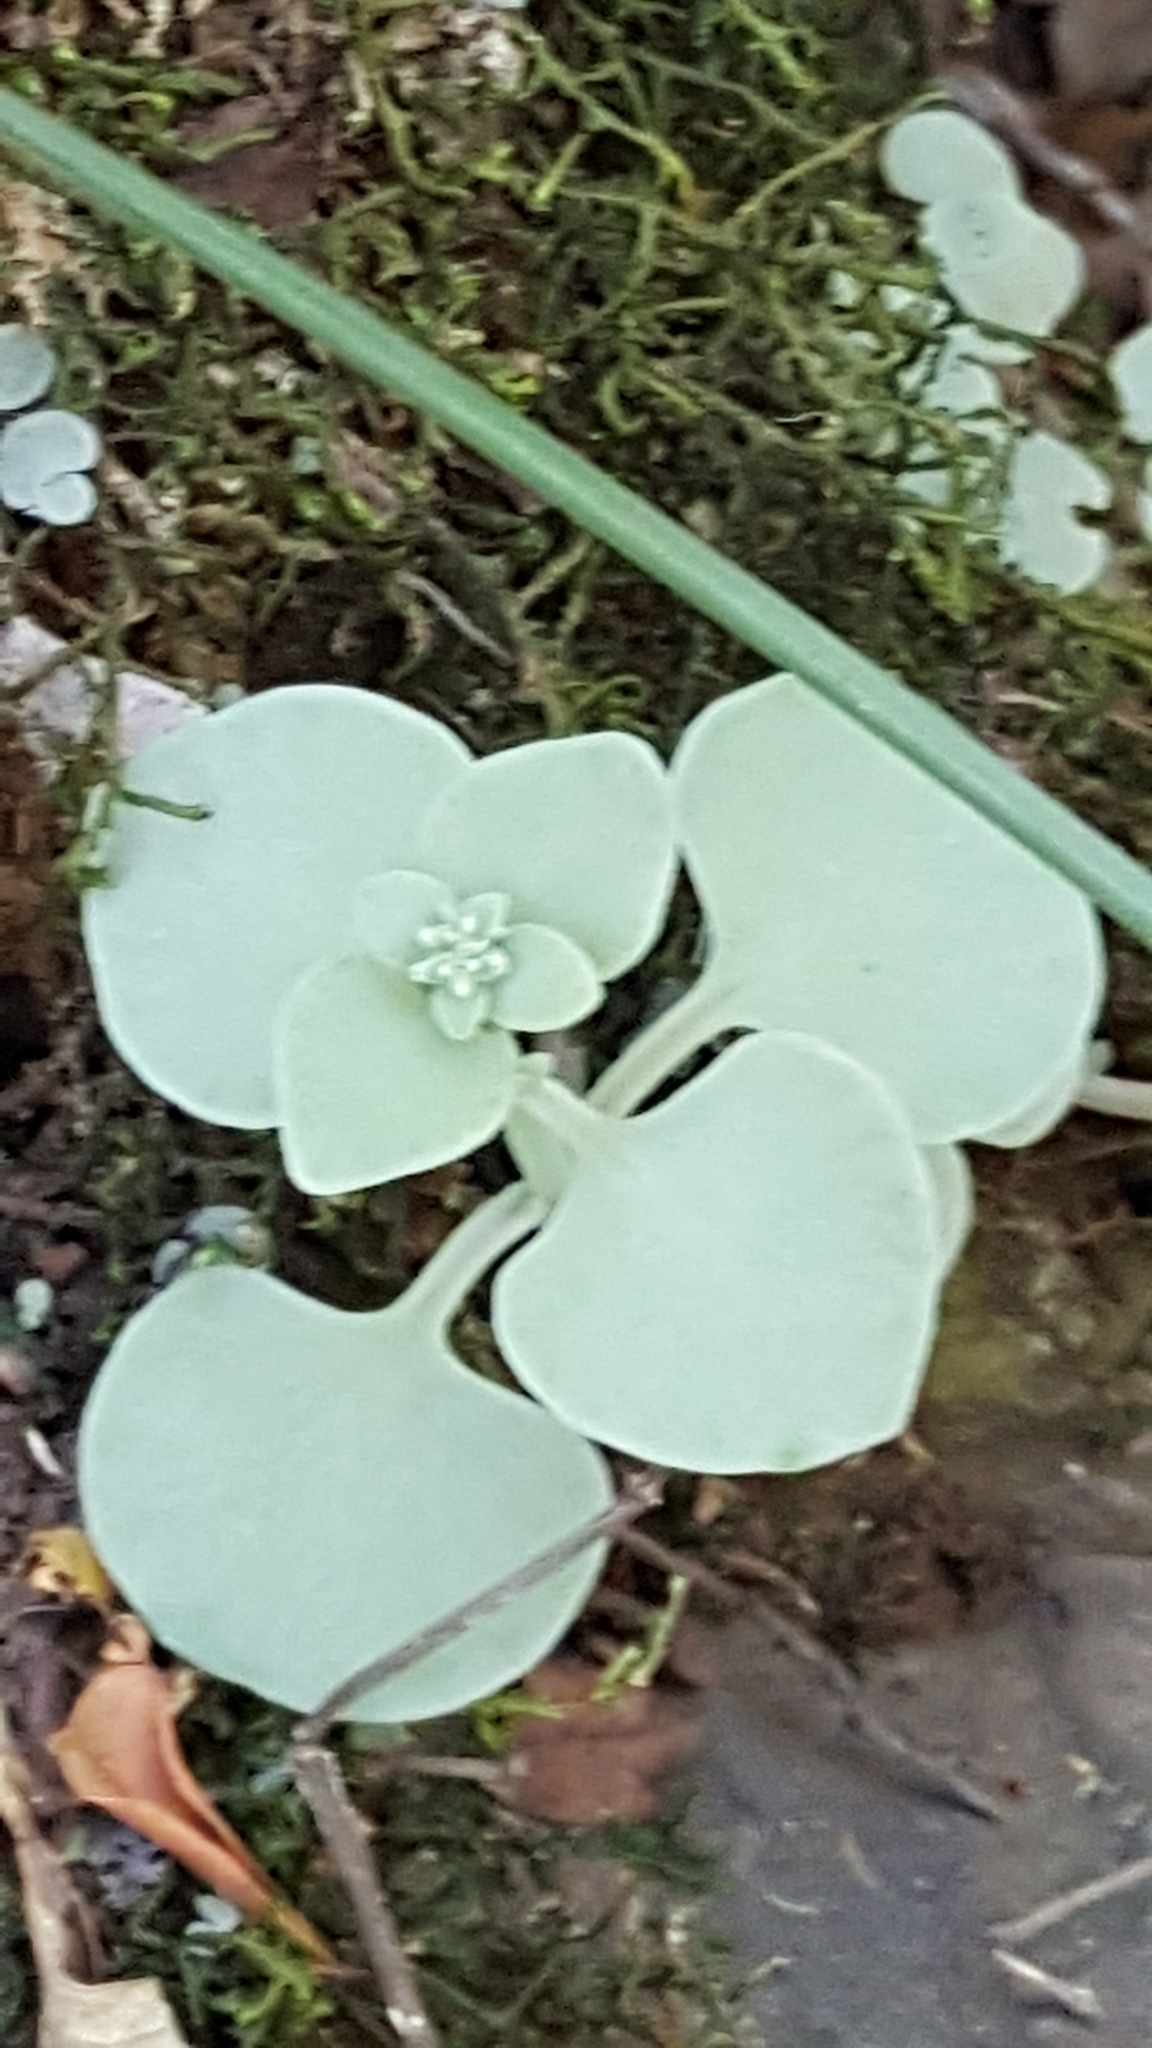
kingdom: Plantae
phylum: Tracheophyta
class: Magnoliopsida
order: Saxifragales
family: Crassulaceae
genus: Crassula
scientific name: Crassula nemorosa
